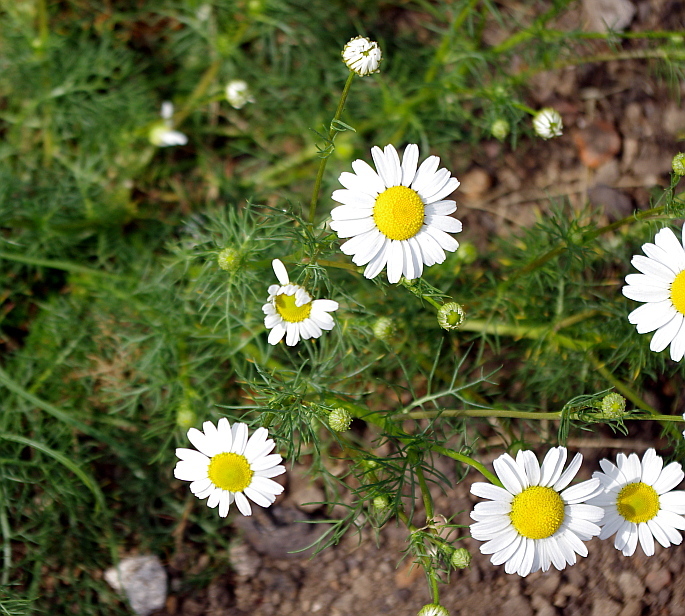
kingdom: Plantae
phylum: Tracheophyta
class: Magnoliopsida
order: Asterales
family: Asteraceae
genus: Tripleurospermum
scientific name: Tripleurospermum inodorum
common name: Scentless mayweed
